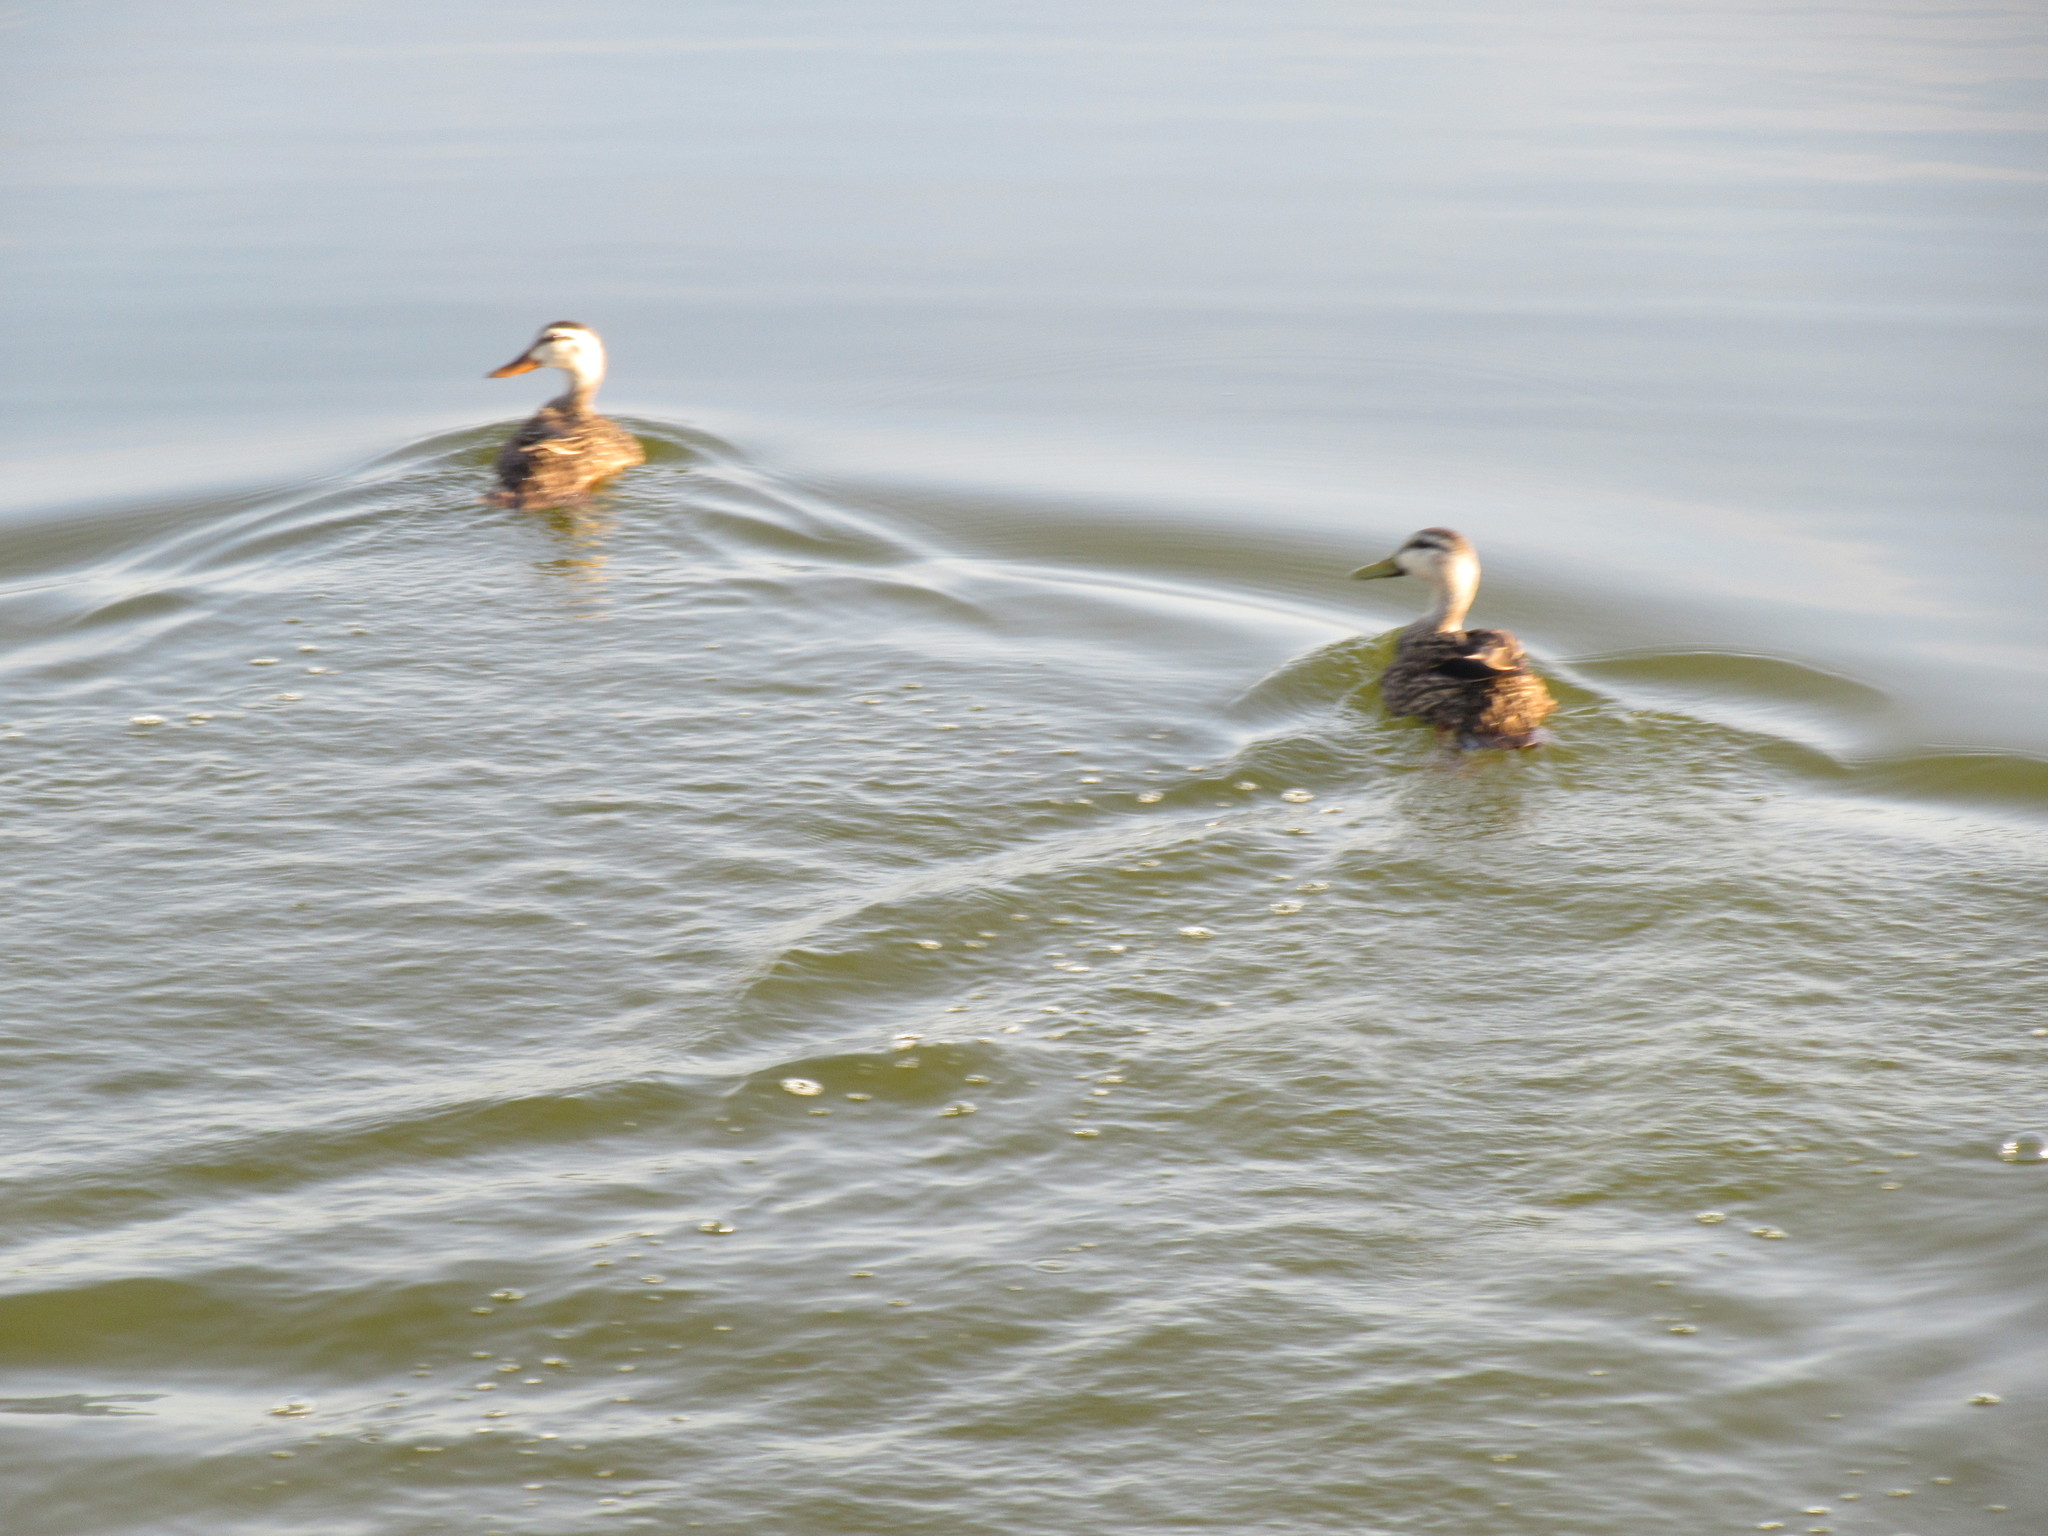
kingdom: Animalia
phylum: Chordata
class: Aves
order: Anseriformes
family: Anatidae
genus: Anas
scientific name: Anas fulvigula
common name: Mottled duck
